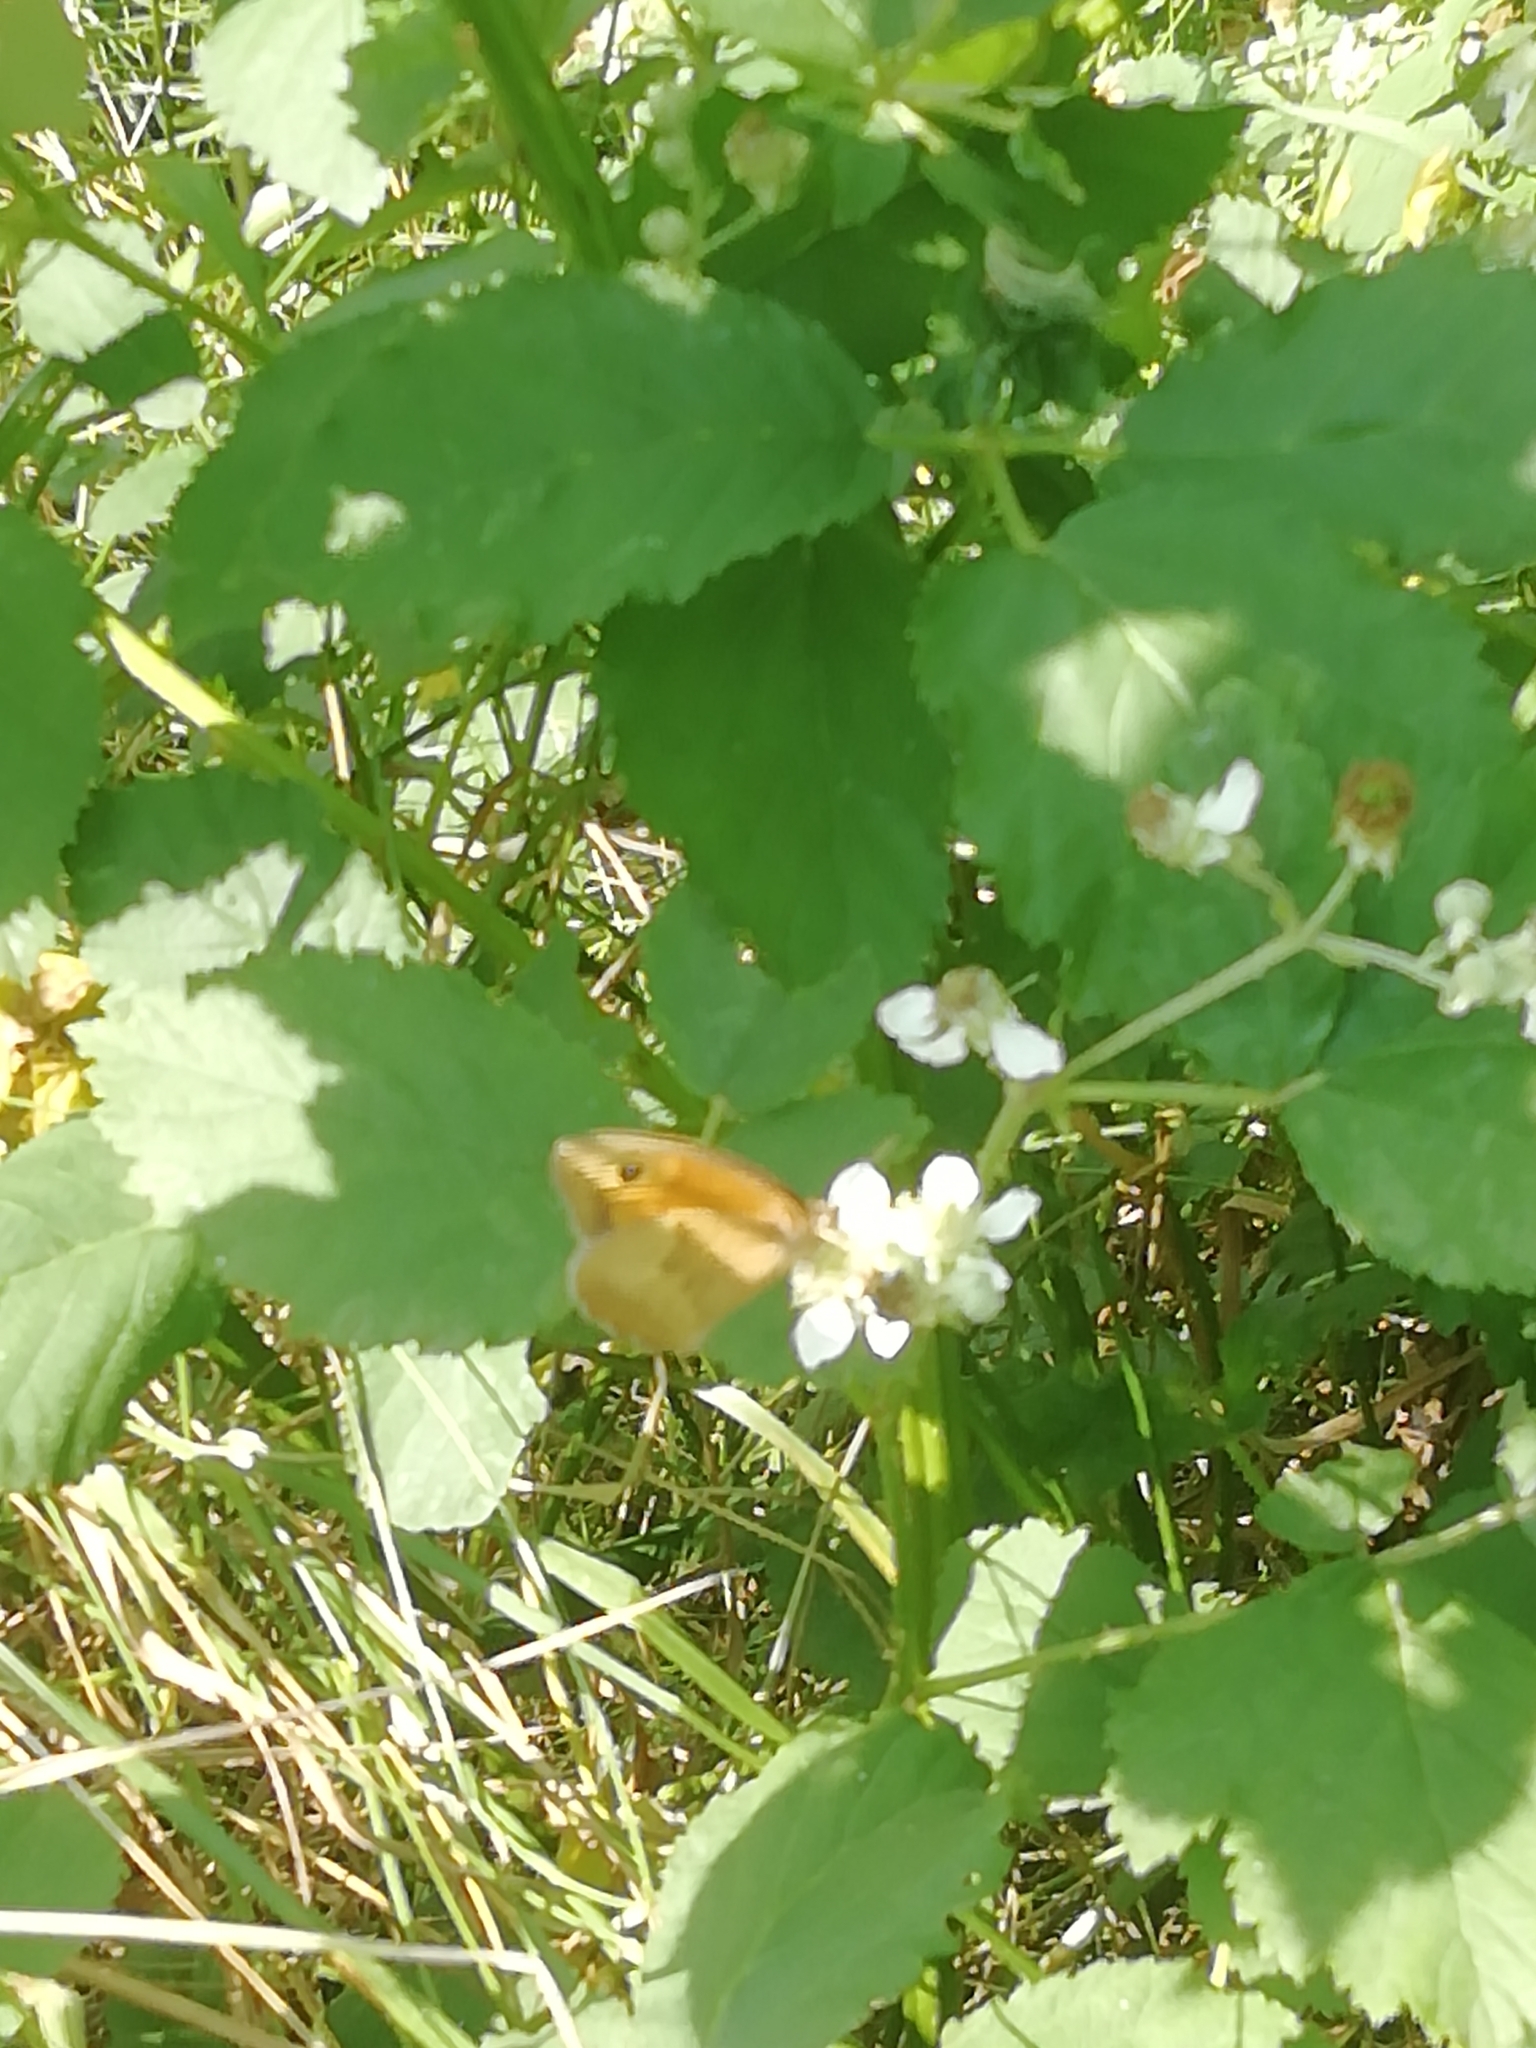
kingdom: Animalia
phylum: Arthropoda
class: Insecta
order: Lepidoptera
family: Nymphalidae
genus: Maniola
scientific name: Maniola jurtina
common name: Meadow brown
